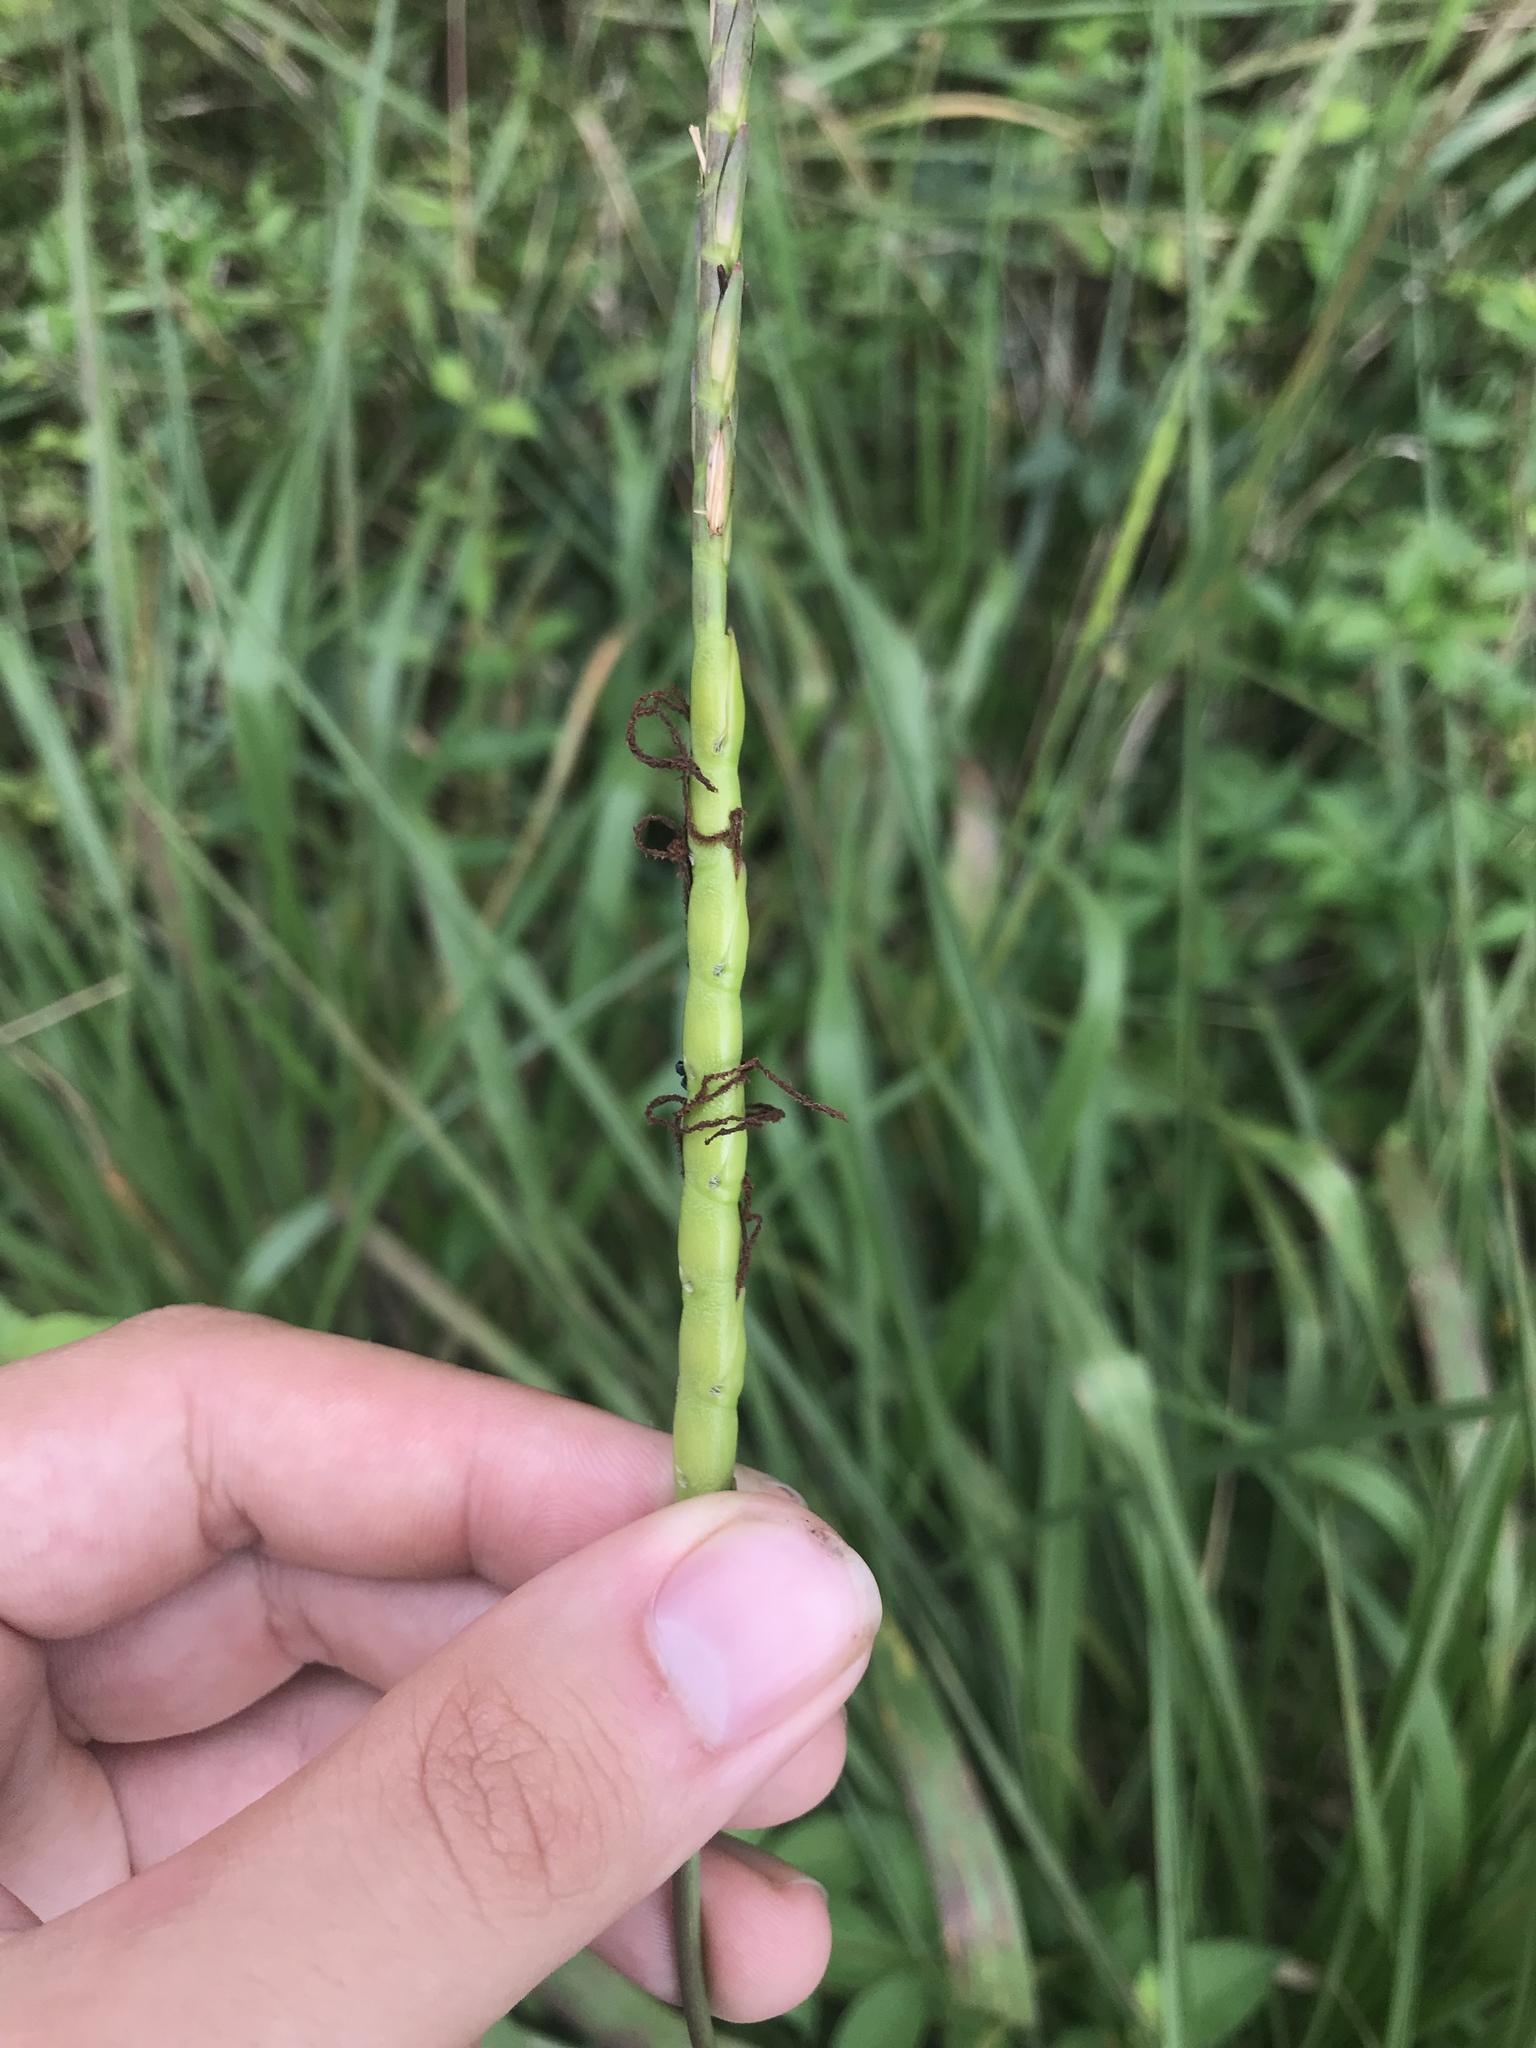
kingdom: Plantae
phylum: Tracheophyta
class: Liliopsida
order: Poales
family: Poaceae
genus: Tripsacum
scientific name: Tripsacum dactyloides
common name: Buffalo-grass
